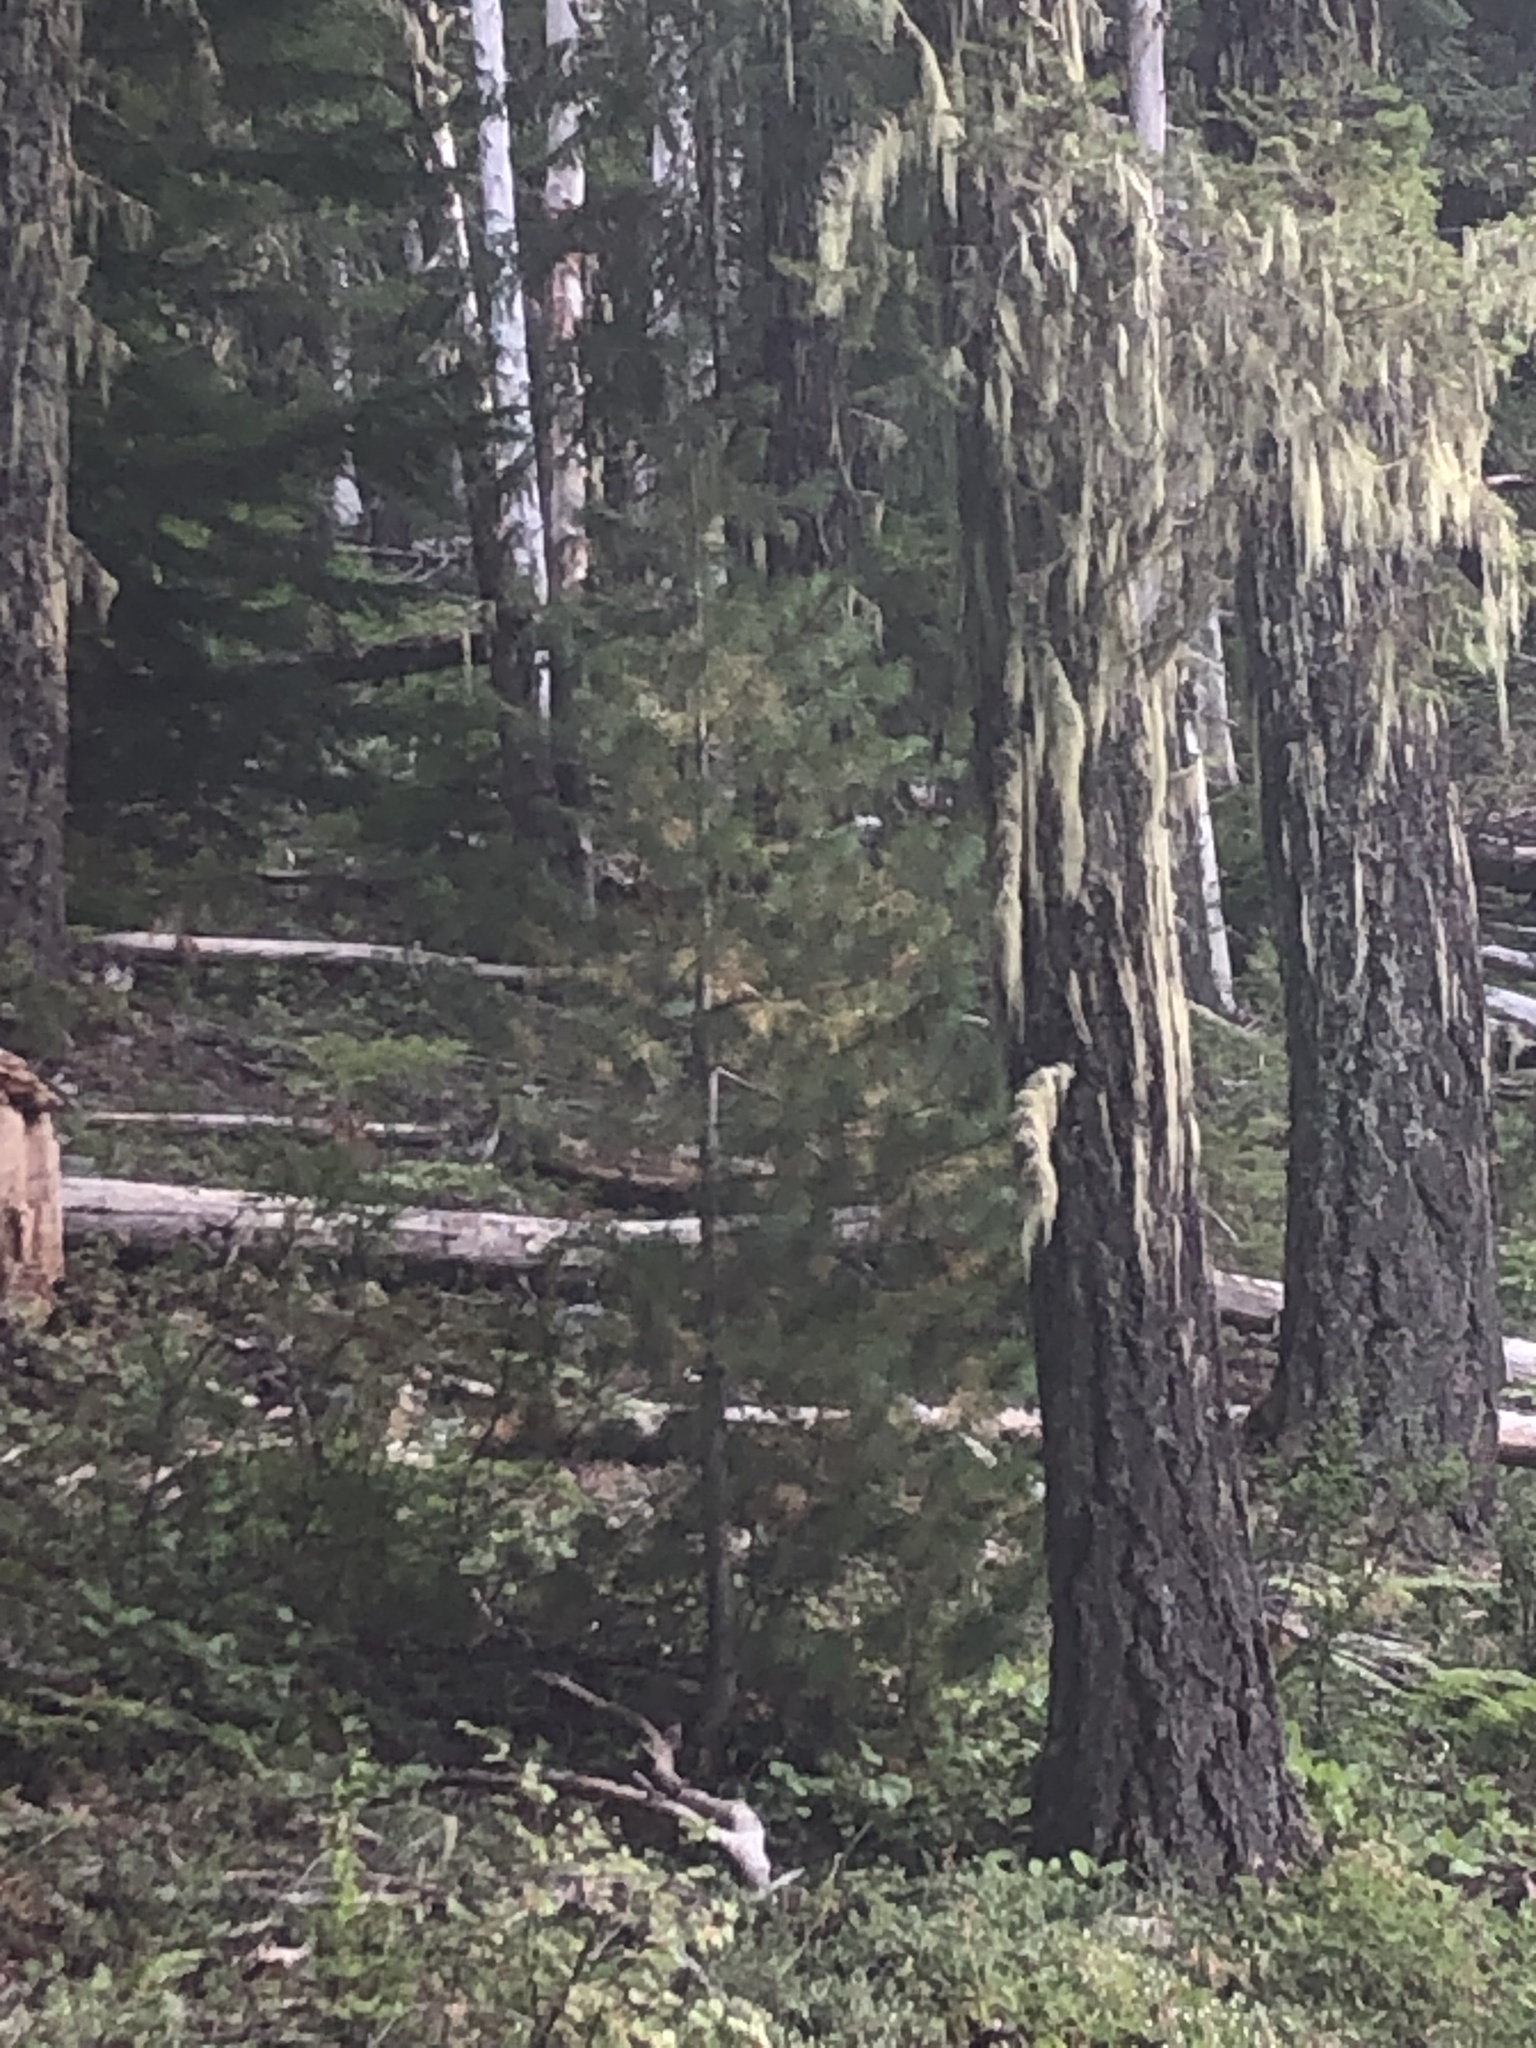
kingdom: Plantae
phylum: Tracheophyta
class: Pinopsida
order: Pinales
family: Pinaceae
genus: Pinus
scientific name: Pinus monticola
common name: Western white pine
